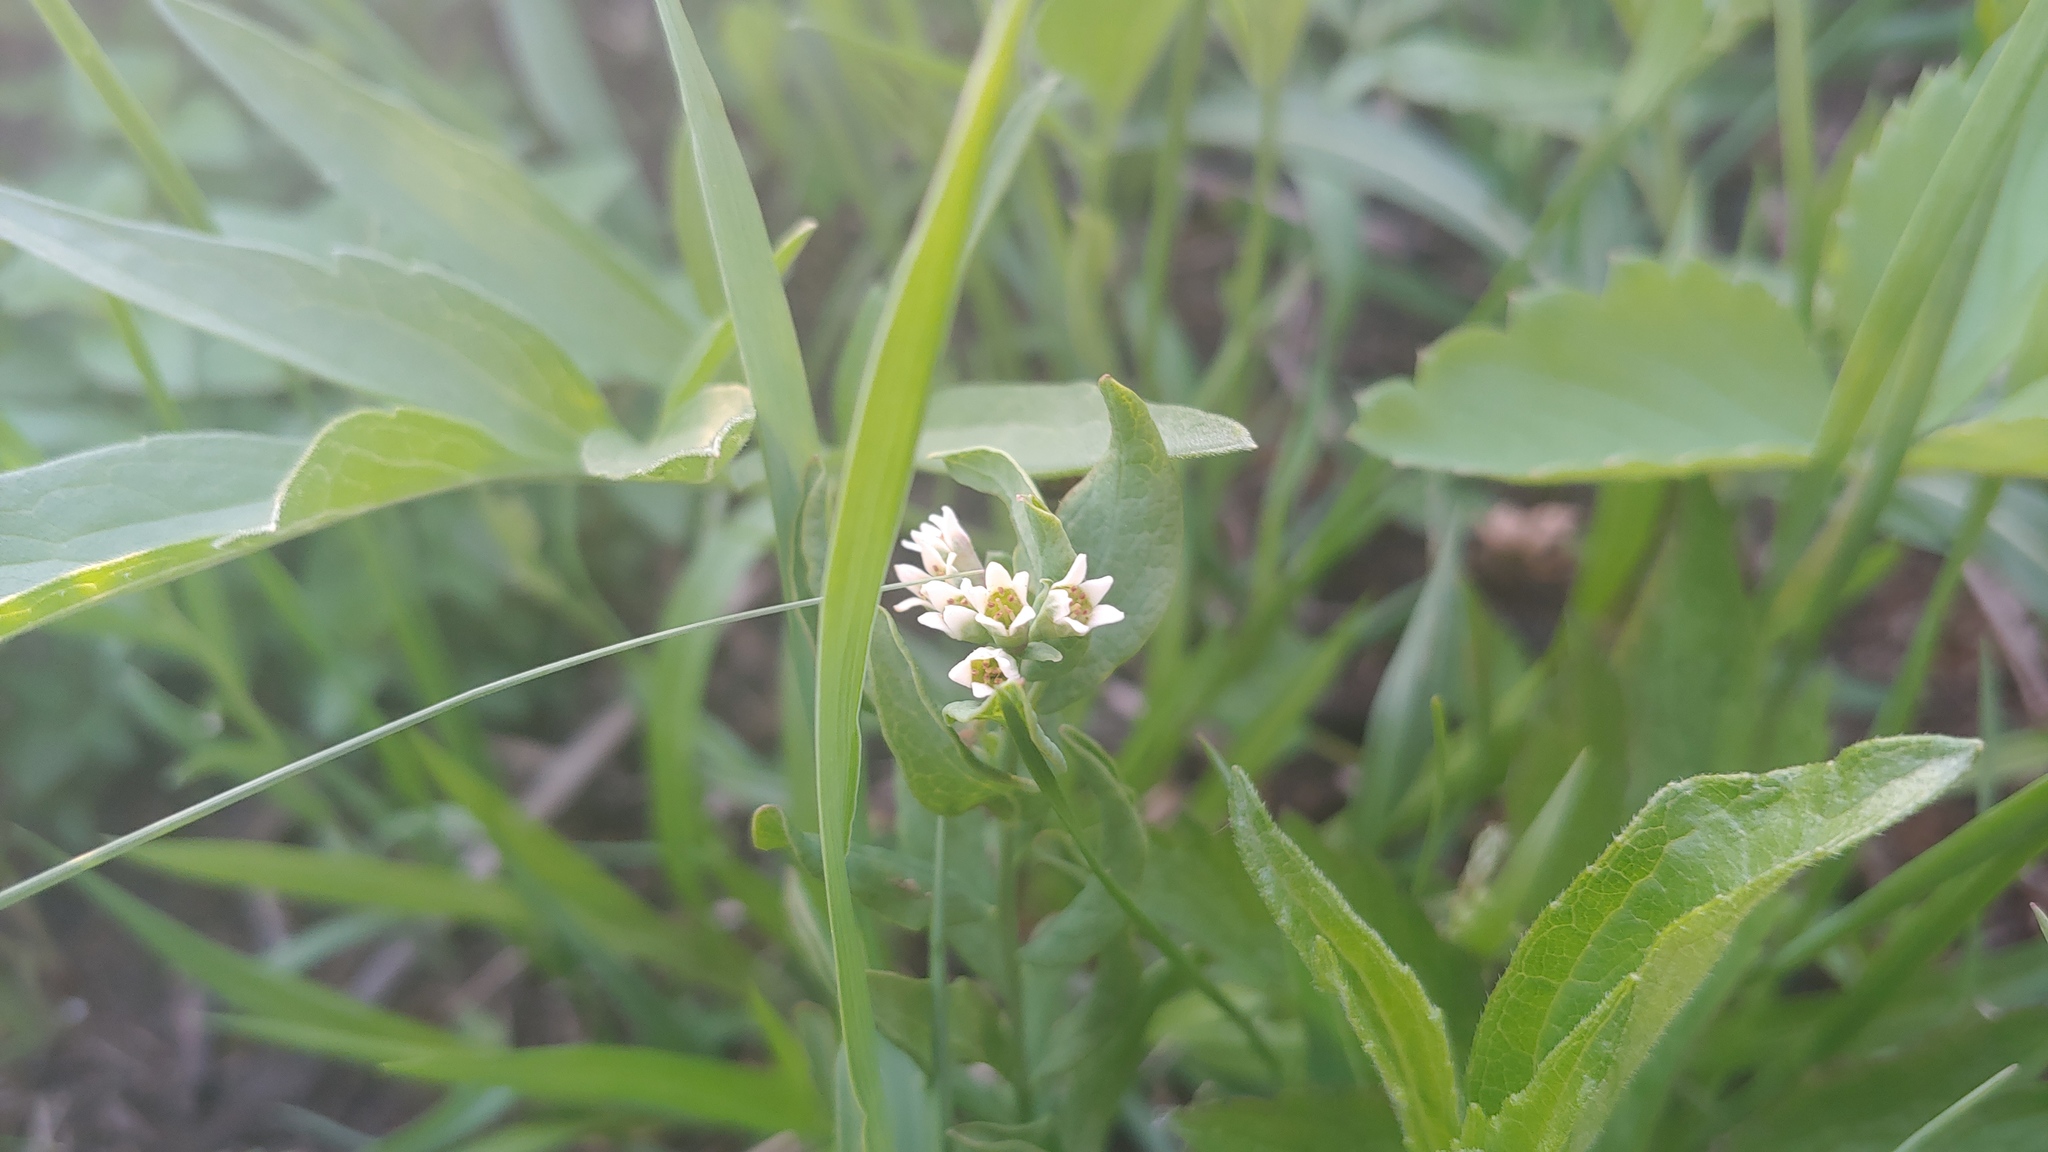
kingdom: Plantae
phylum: Tracheophyta
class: Magnoliopsida
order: Santalales
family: Comandraceae
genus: Comandra
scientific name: Comandra umbellata
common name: Bastard toadflax
